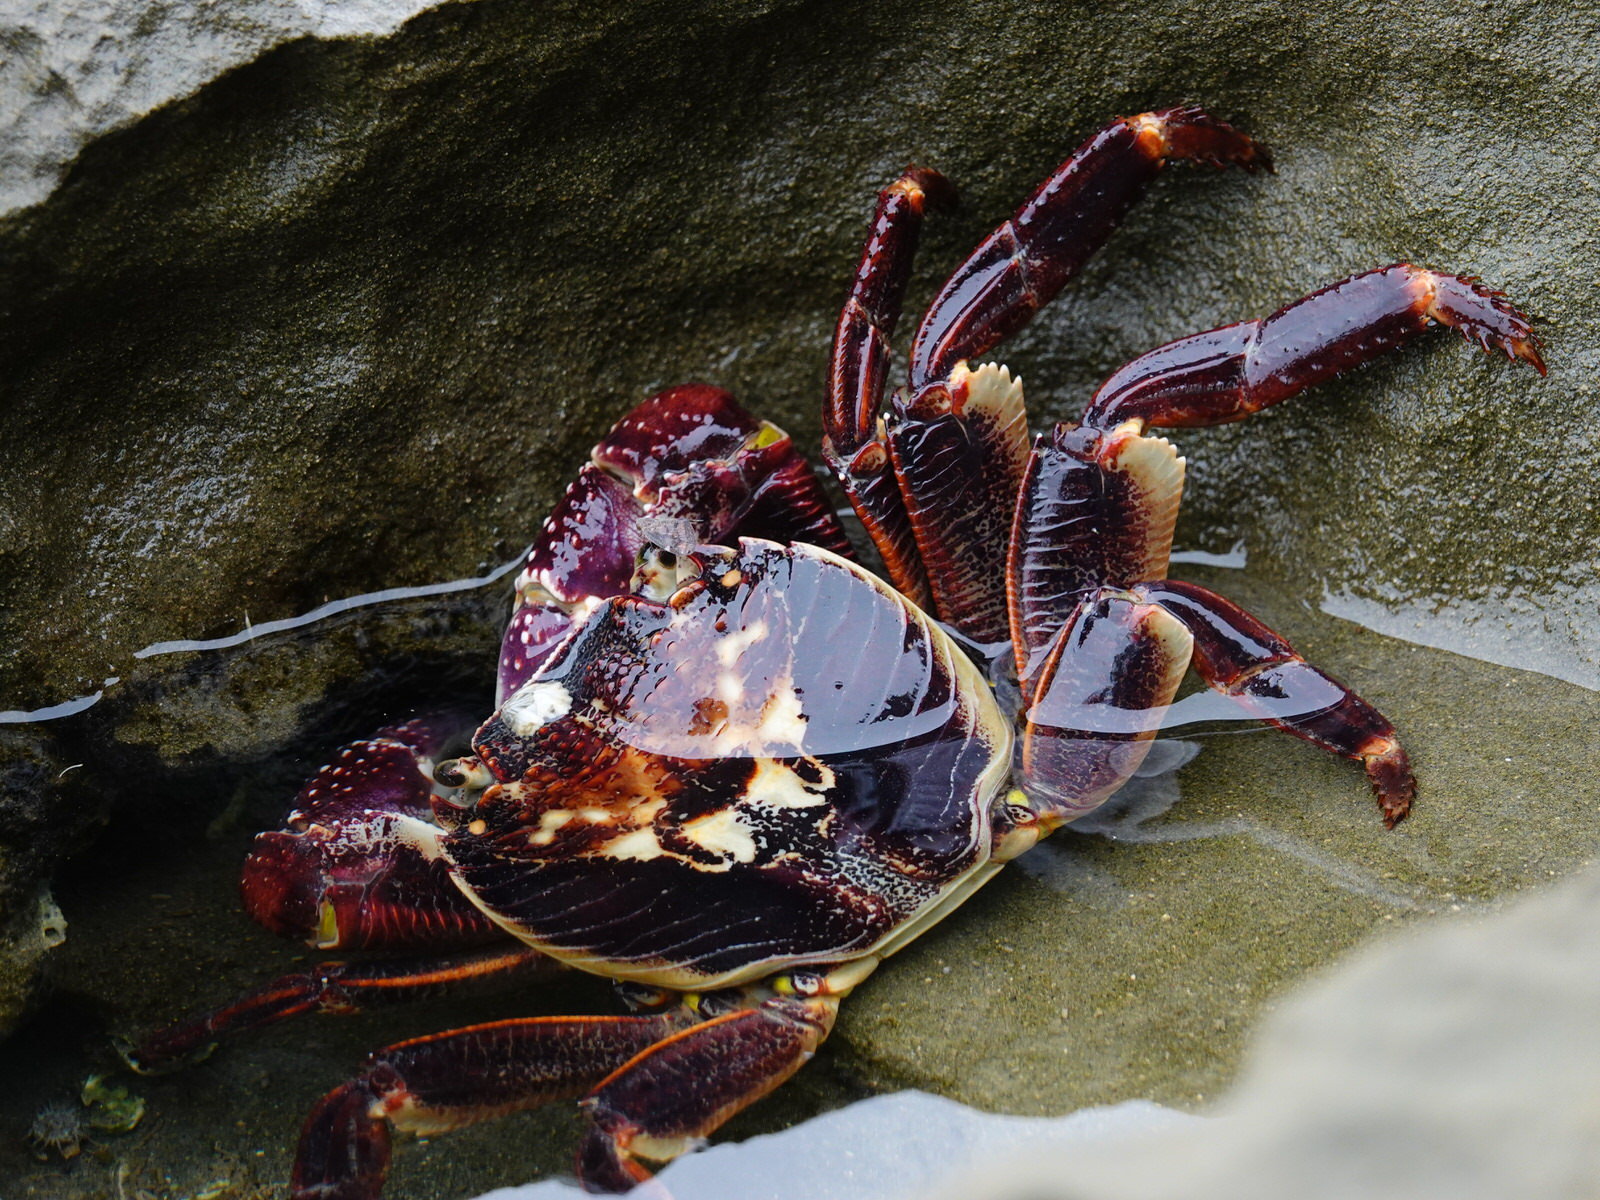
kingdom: Animalia
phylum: Arthropoda
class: Malacostraca
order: Decapoda
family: Grapsidae
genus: Leptograpsus
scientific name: Leptograpsus variegatus
